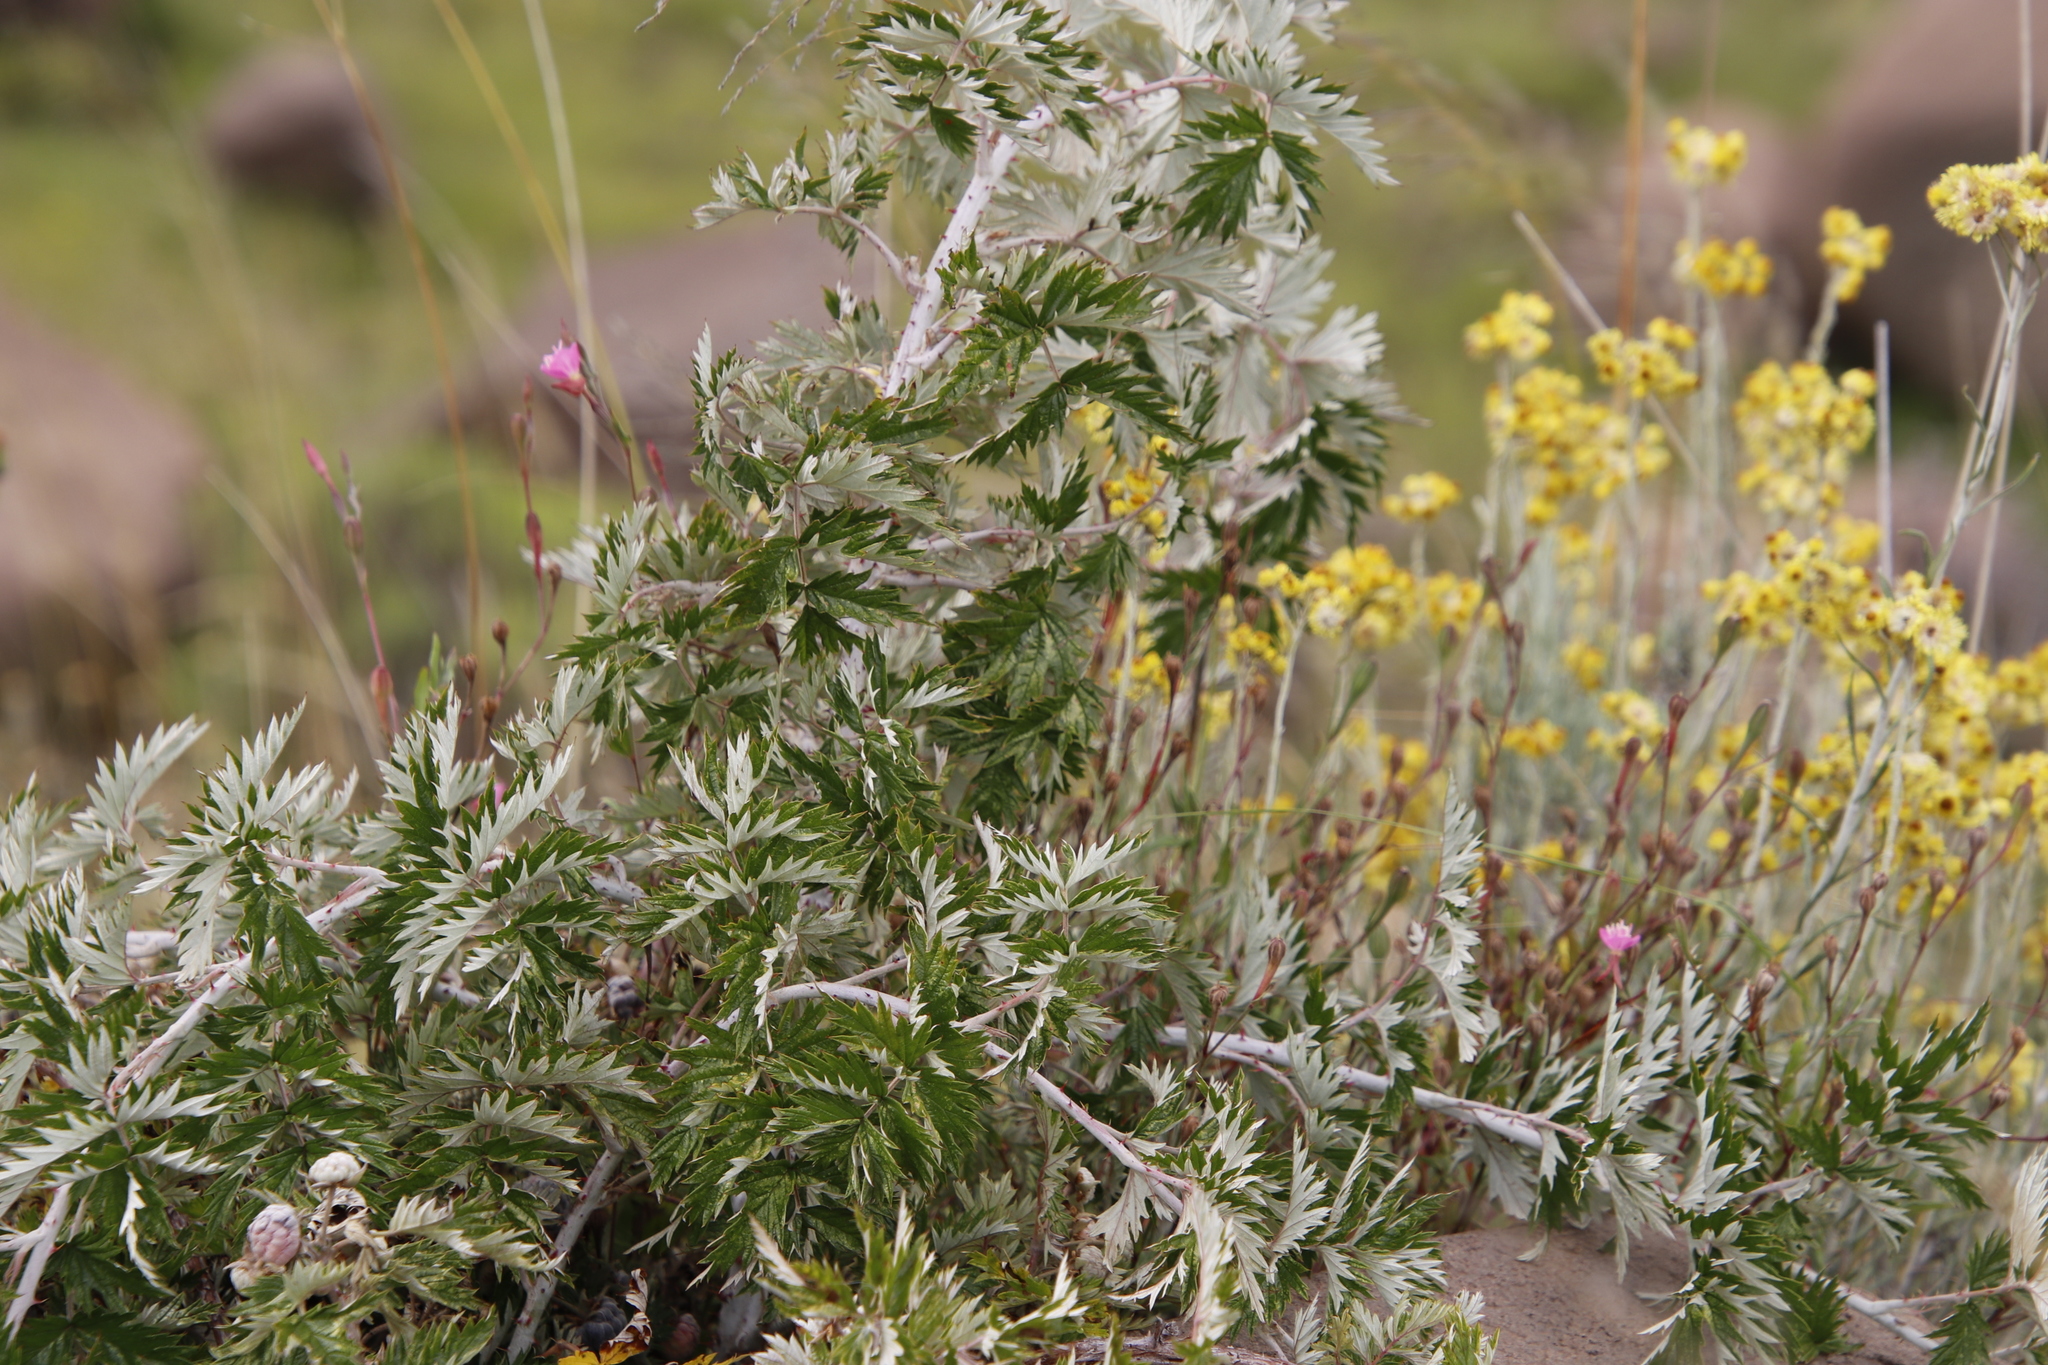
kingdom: Plantae
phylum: Tracheophyta
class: Magnoliopsida
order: Rosales
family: Rosaceae
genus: Rubus
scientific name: Rubus ludwigii
